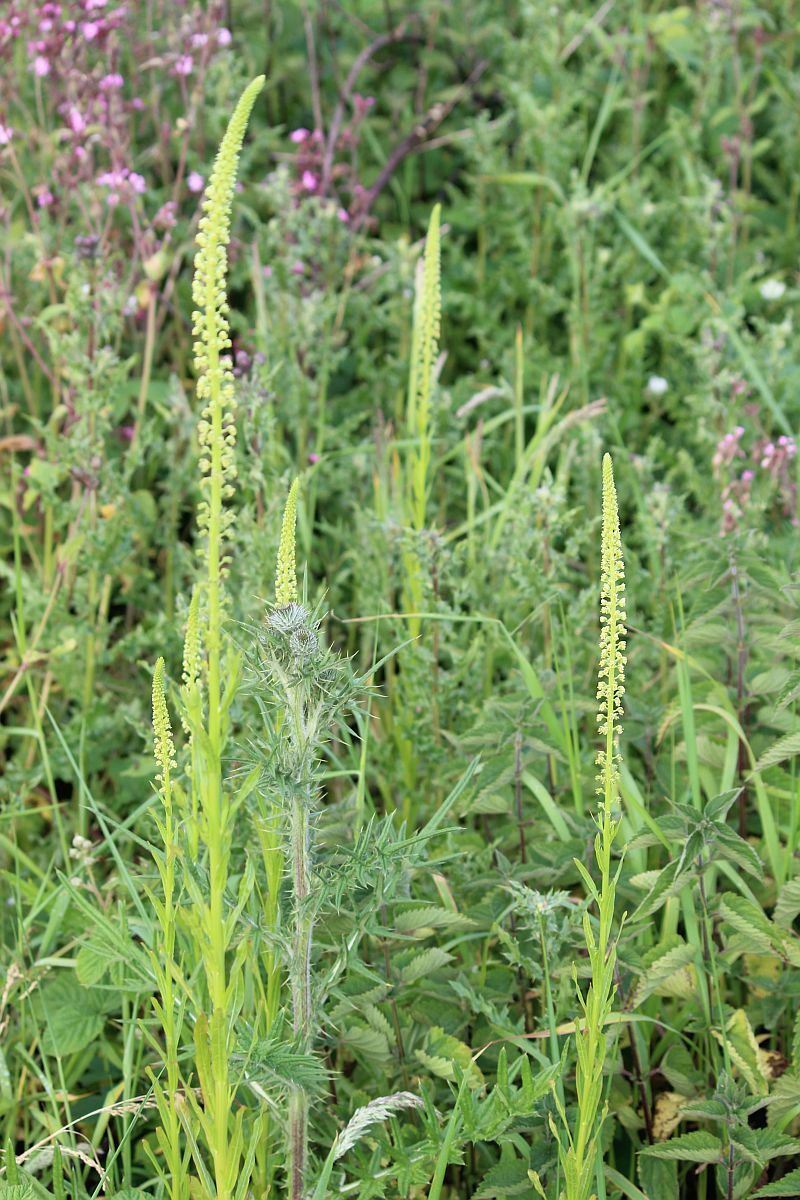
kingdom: Plantae
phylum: Tracheophyta
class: Magnoliopsida
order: Brassicales
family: Resedaceae
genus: Reseda
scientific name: Reseda luteola
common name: Weld
